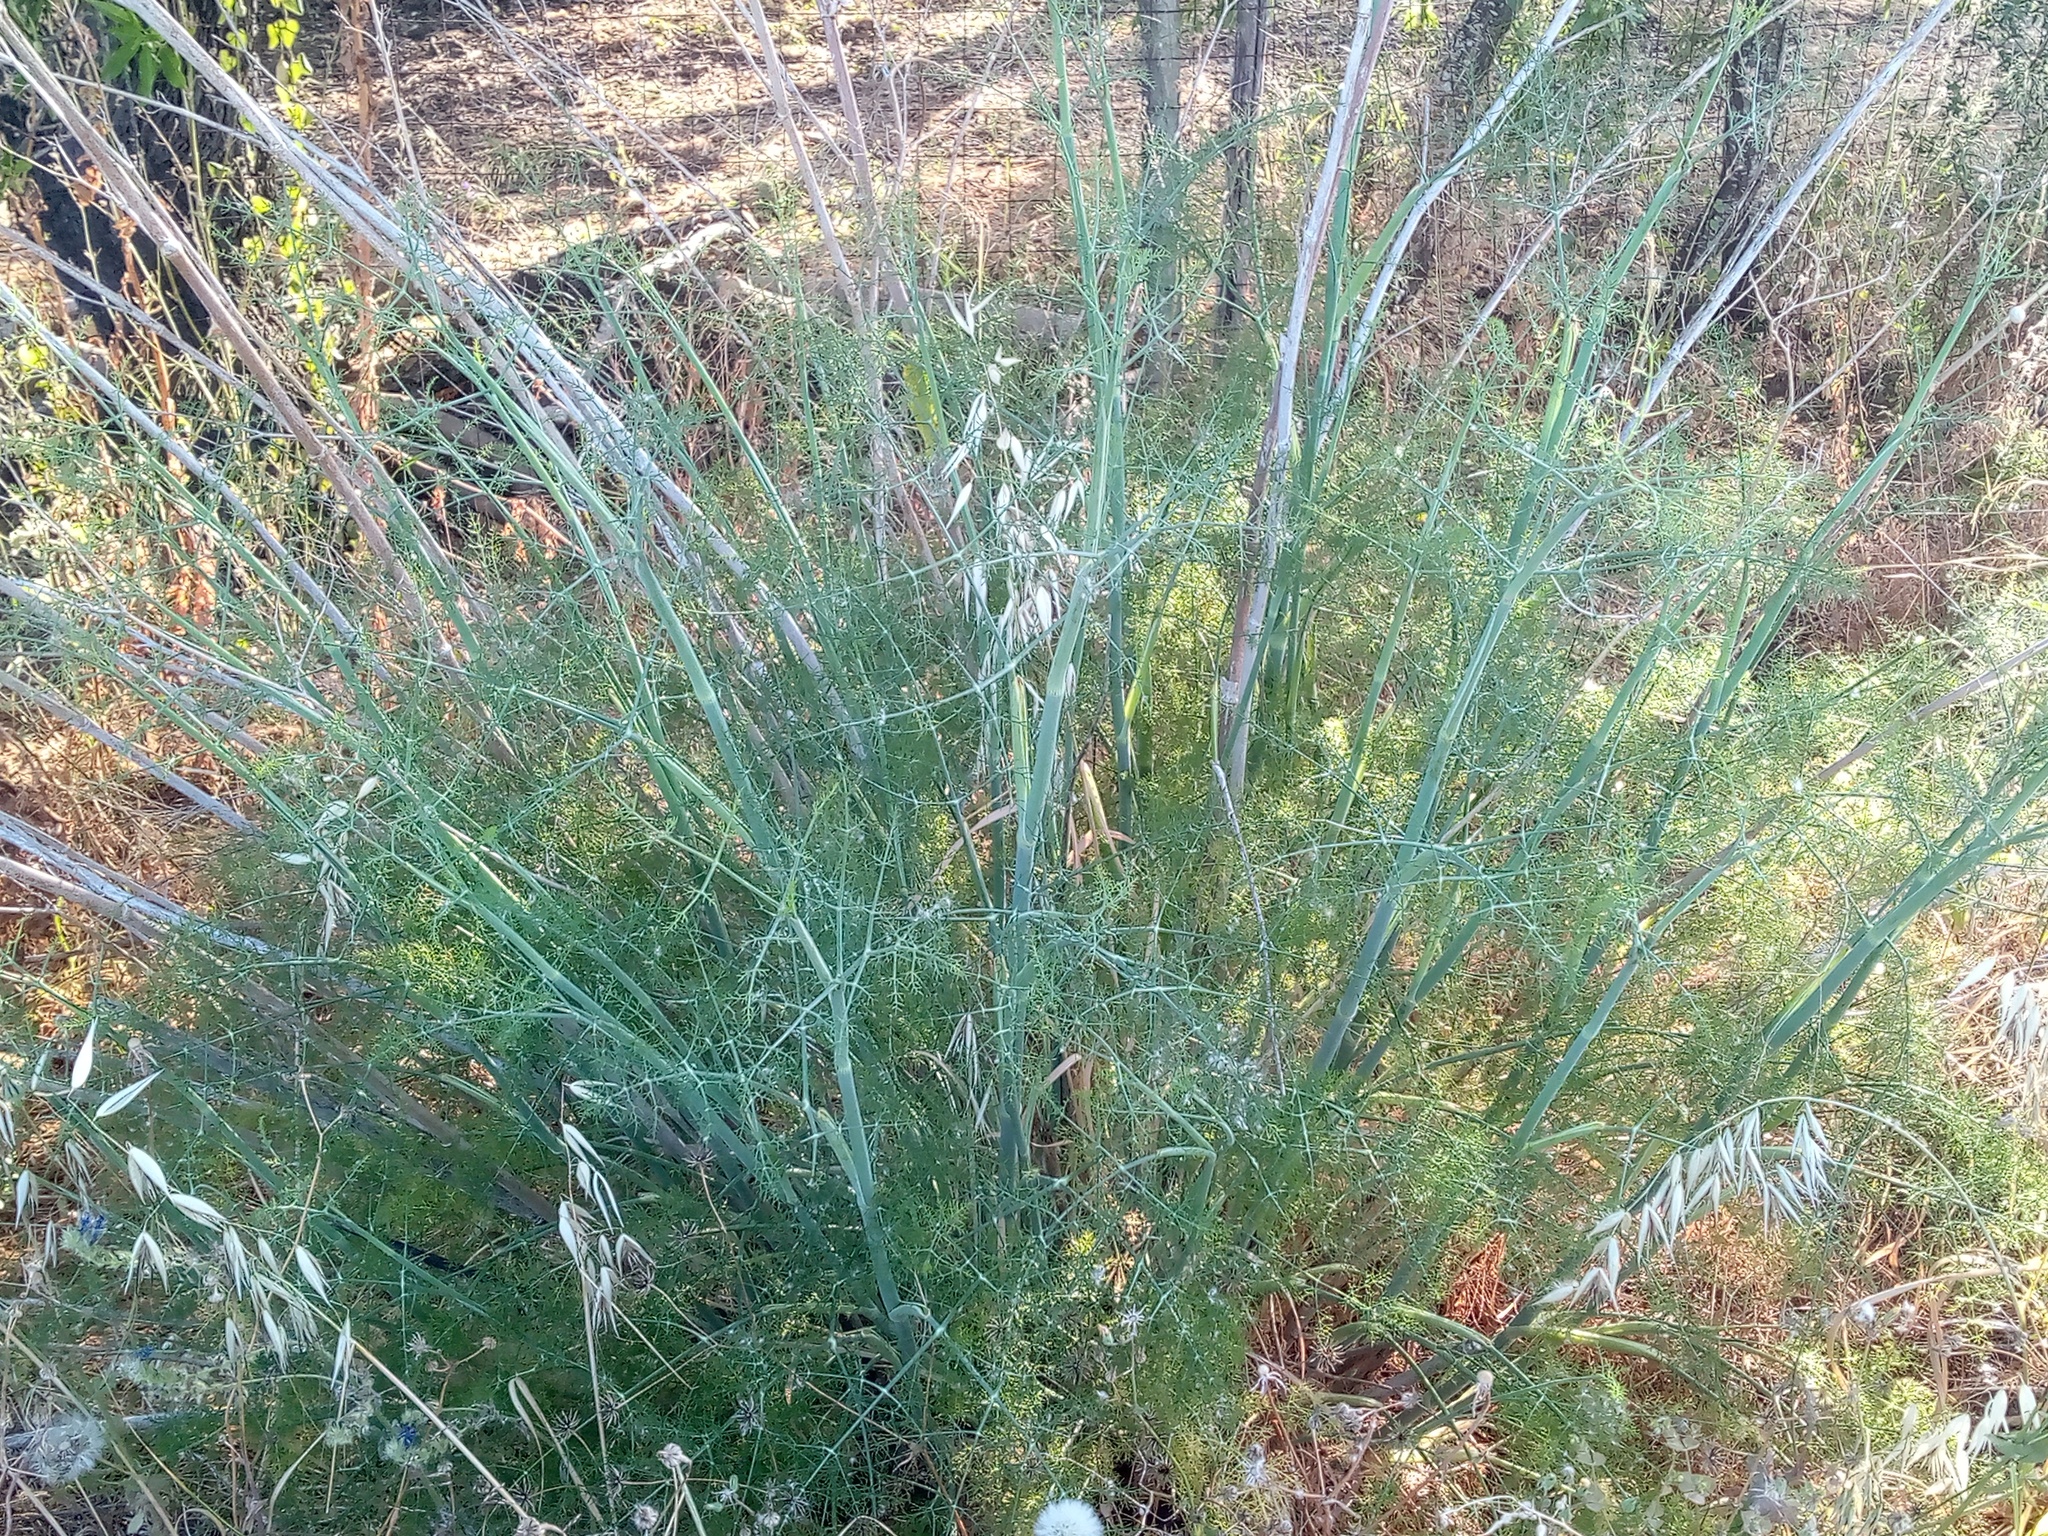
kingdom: Plantae
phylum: Tracheophyta
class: Magnoliopsida
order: Apiales
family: Apiaceae
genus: Foeniculum
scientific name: Foeniculum vulgare
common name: Fennel
